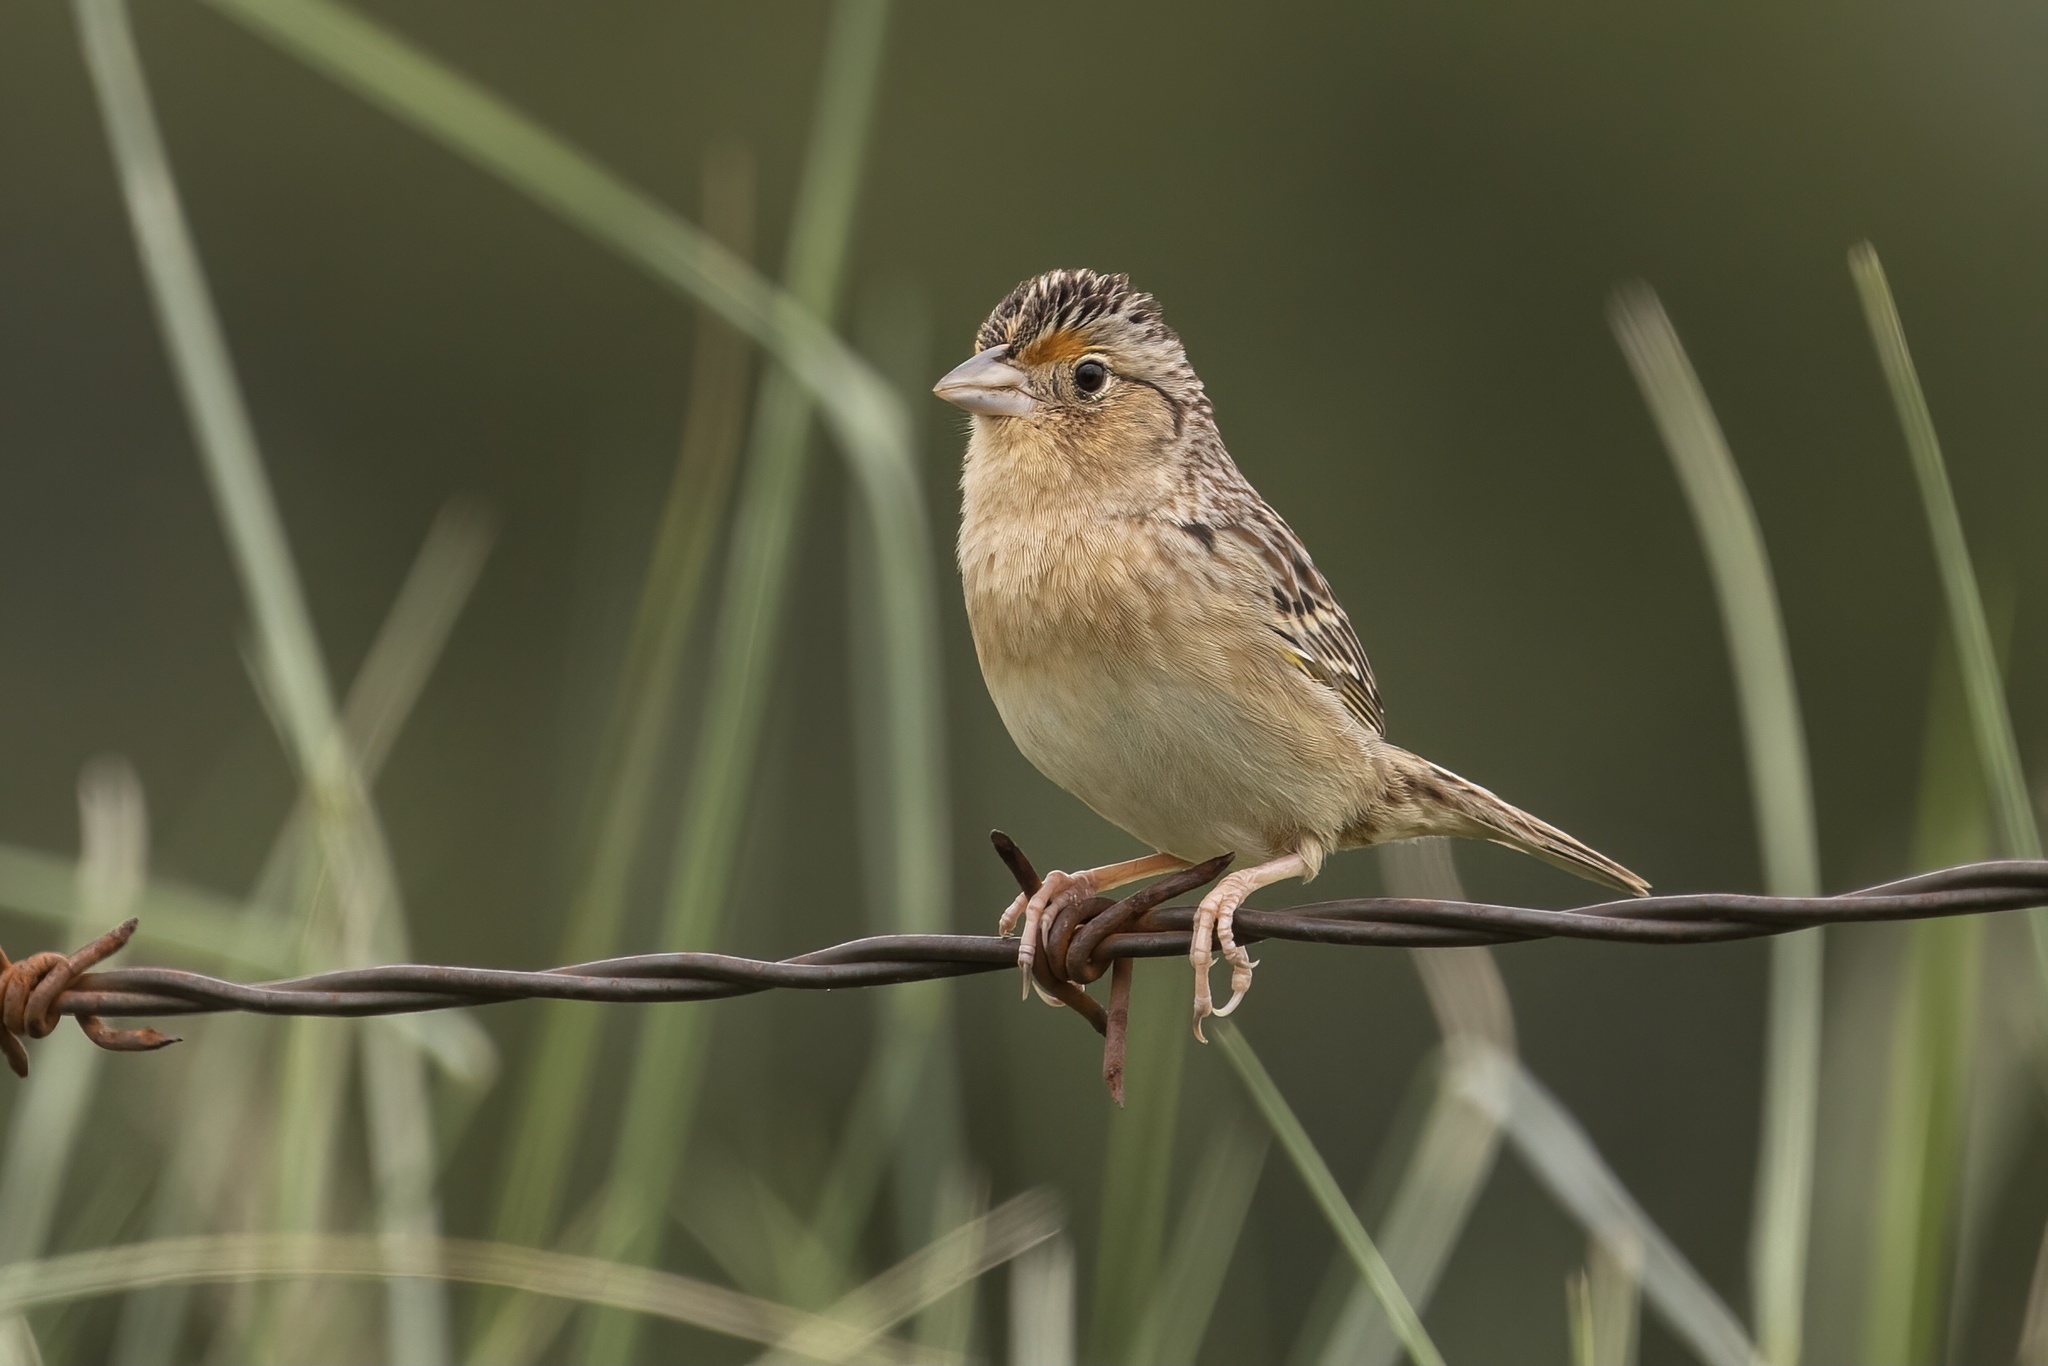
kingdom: Animalia
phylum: Chordata
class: Aves
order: Passeriformes
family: Passerellidae
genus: Ammodramus
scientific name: Ammodramus savannarum
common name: Grasshopper sparrow
